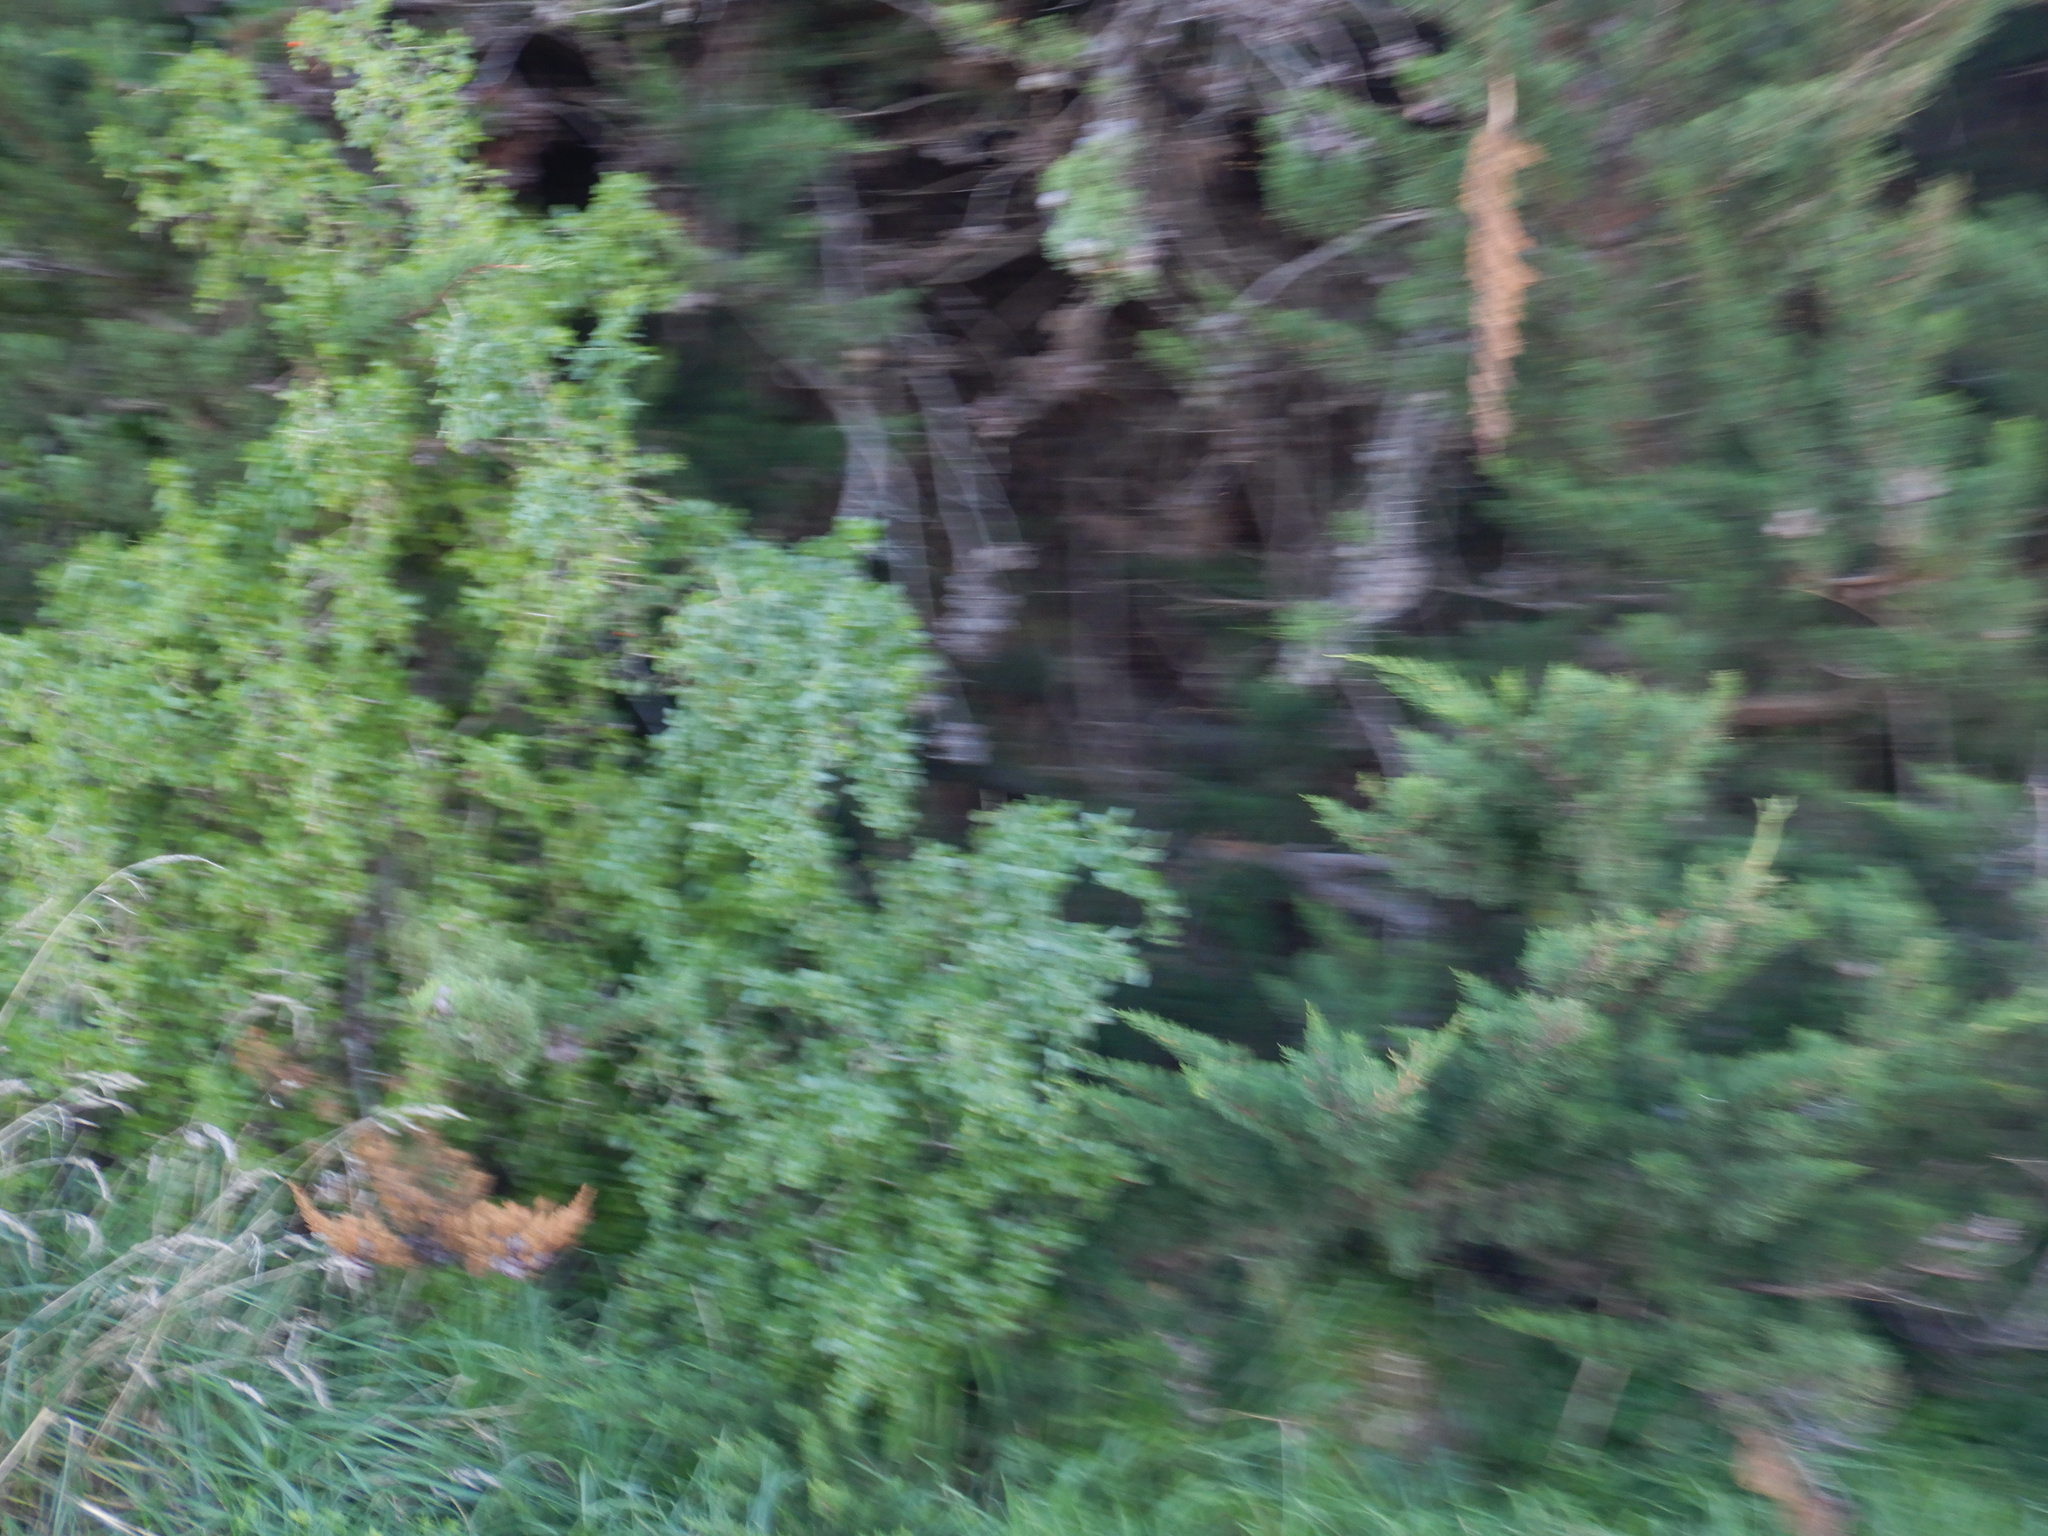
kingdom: Plantae
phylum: Tracheophyta
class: Magnoliopsida
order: Solanales
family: Solanaceae
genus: Lycium
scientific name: Lycium ferocissimum
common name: African boxthorn
